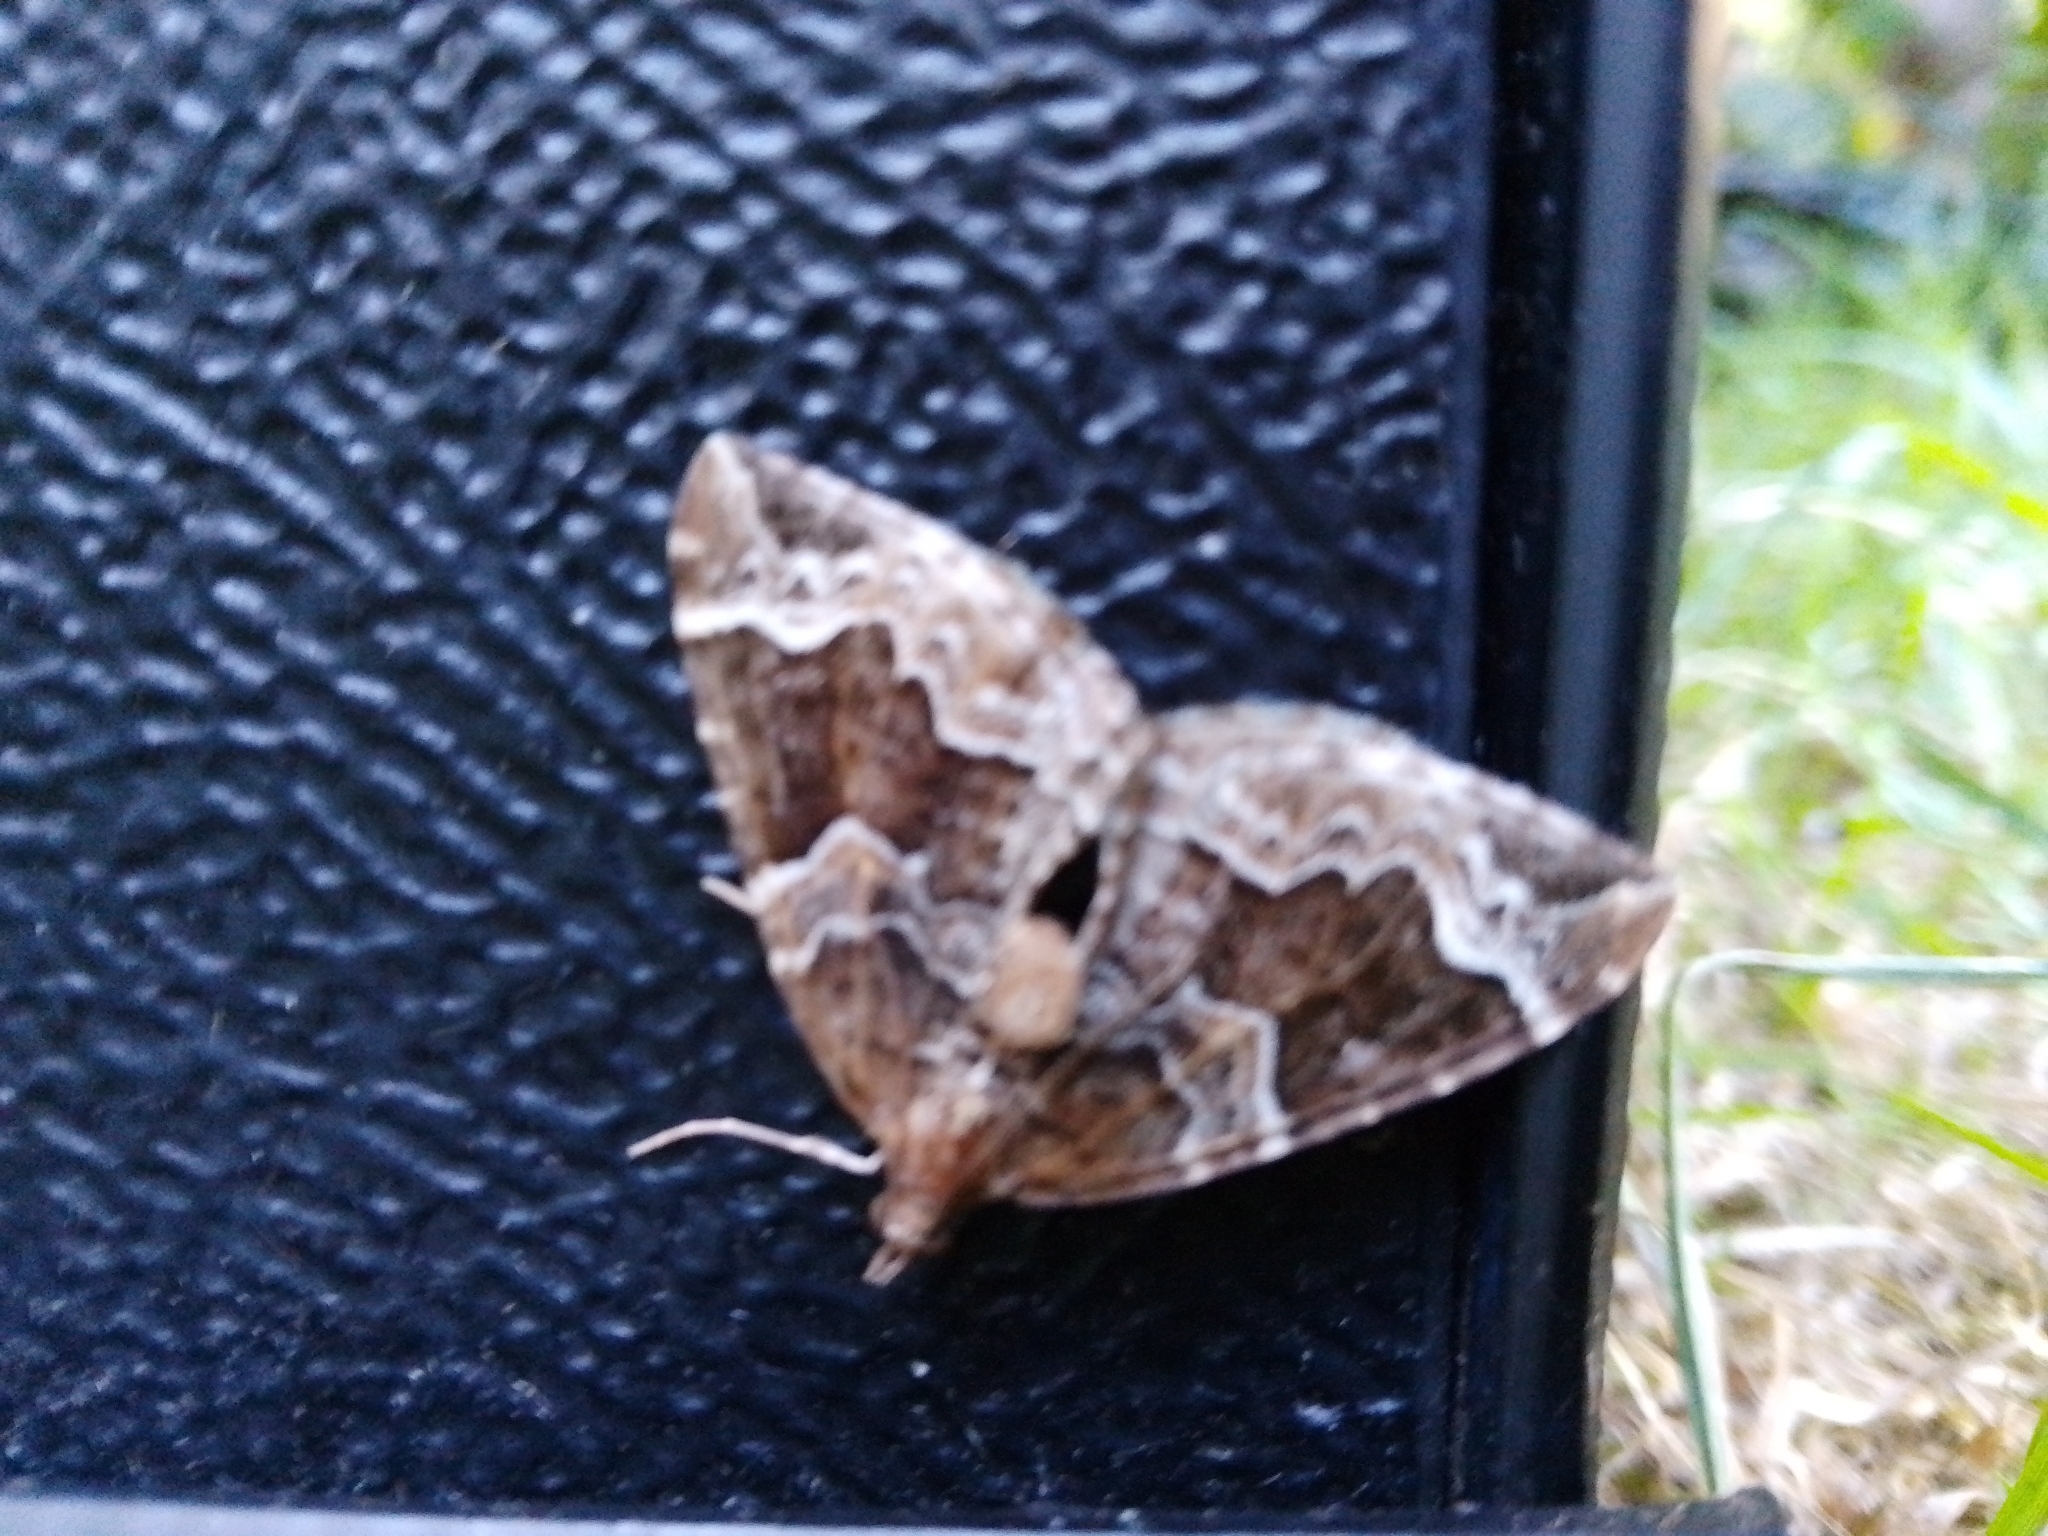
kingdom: Animalia
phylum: Arthropoda
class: Insecta
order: Lepidoptera
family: Geometridae
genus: Eulithis
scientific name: Eulithis prunata
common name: Phoenix
